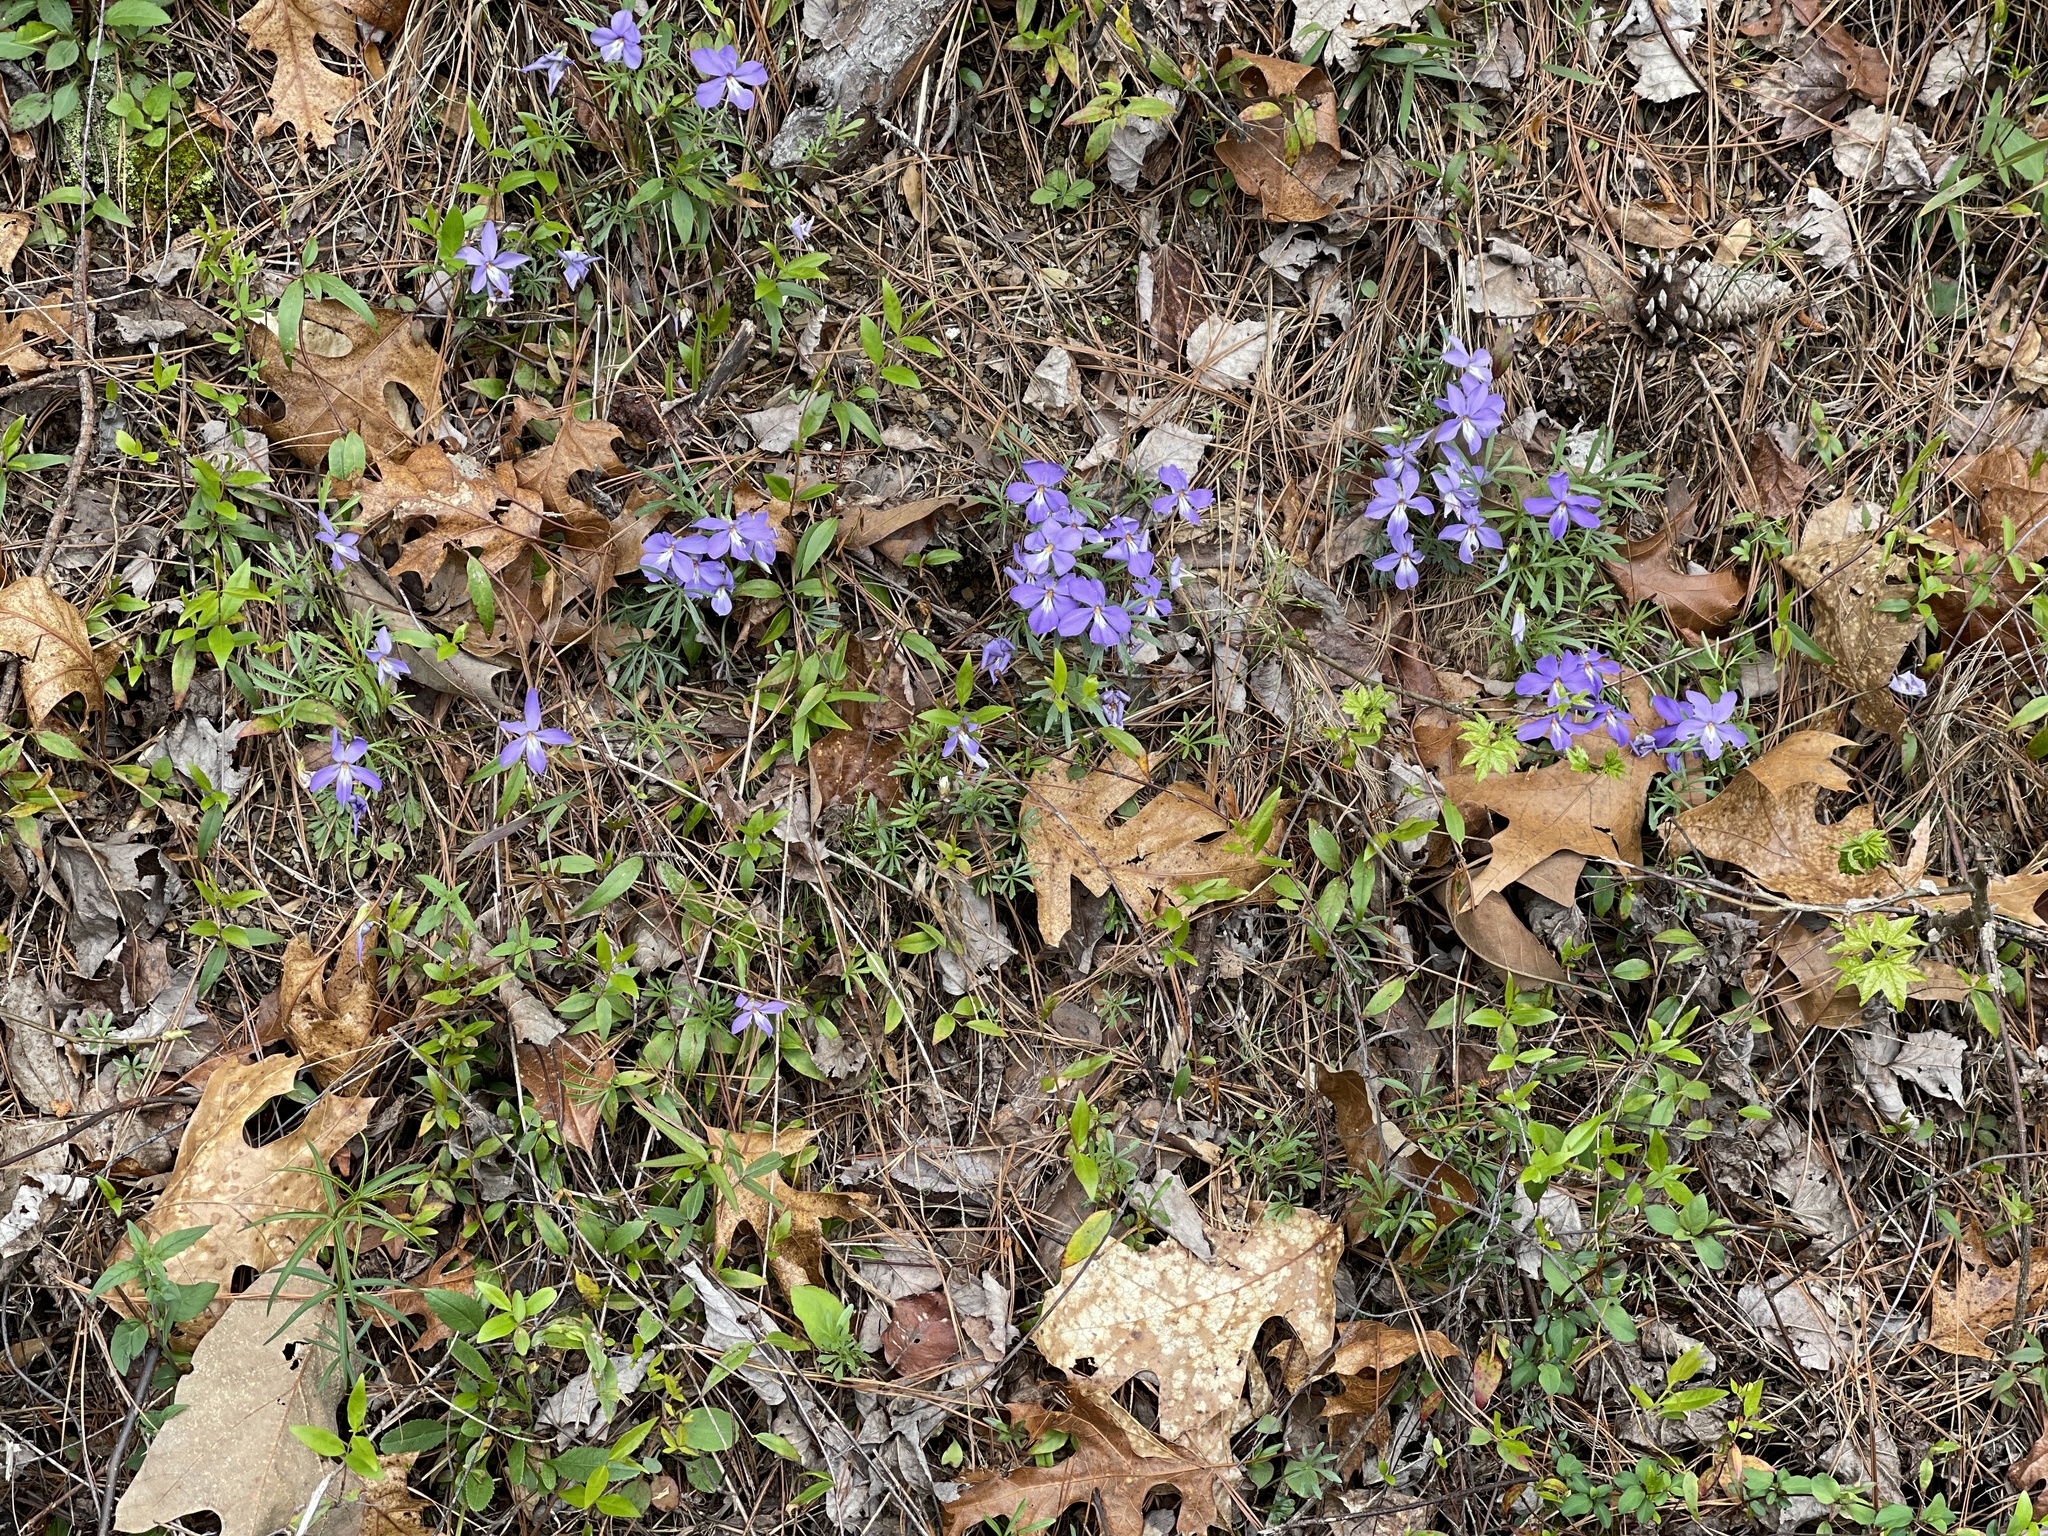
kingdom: Plantae
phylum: Tracheophyta
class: Magnoliopsida
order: Malpighiales
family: Violaceae
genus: Viola
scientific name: Viola pedata
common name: Pansy violet
